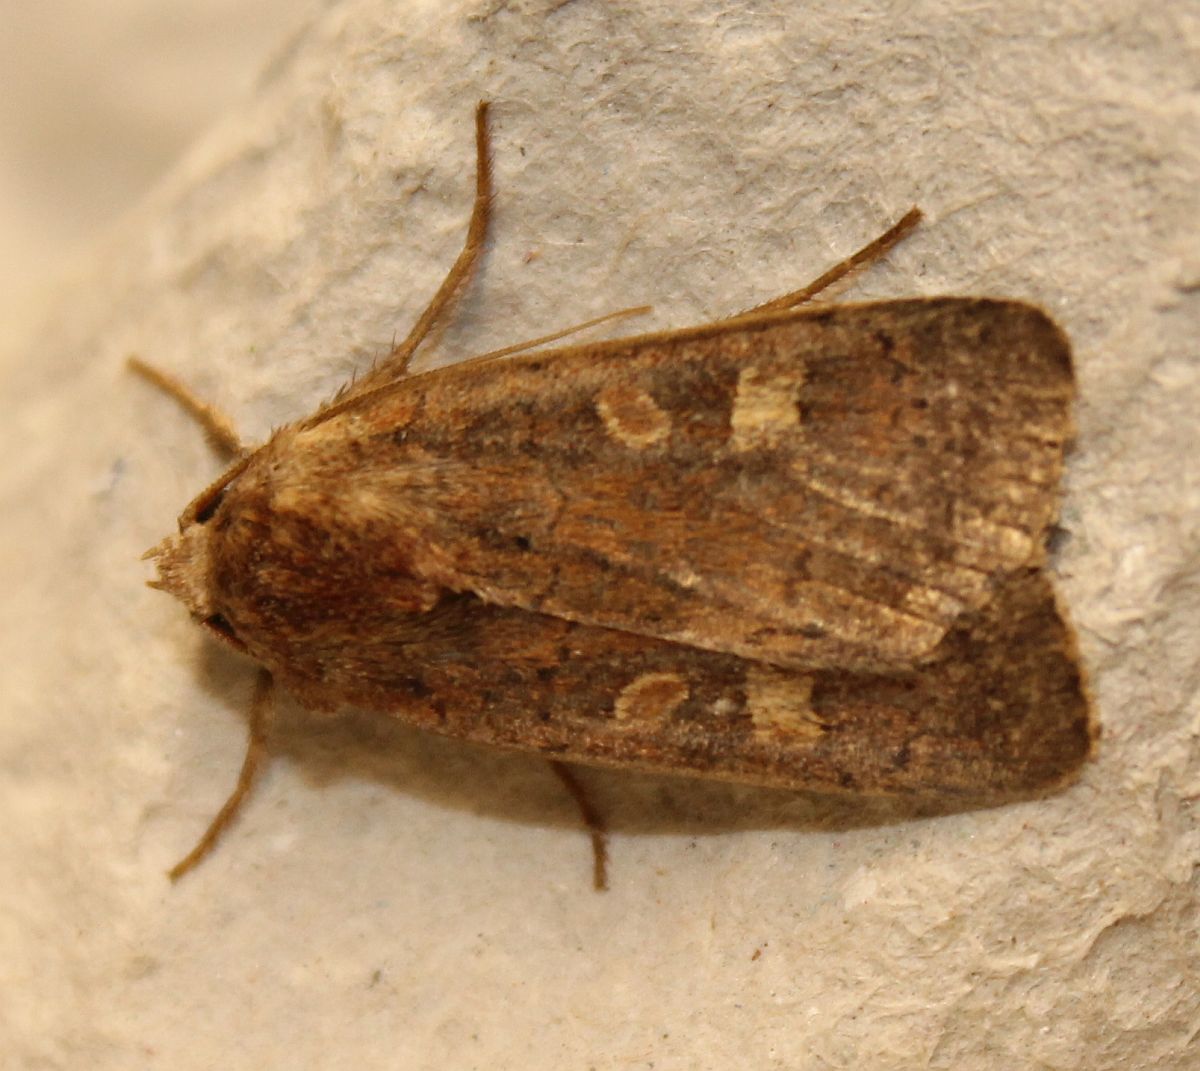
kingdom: Animalia
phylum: Arthropoda
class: Insecta
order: Lepidoptera
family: Noctuidae
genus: Xestia
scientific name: Xestia xanthographa
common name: Square-spot rustic
